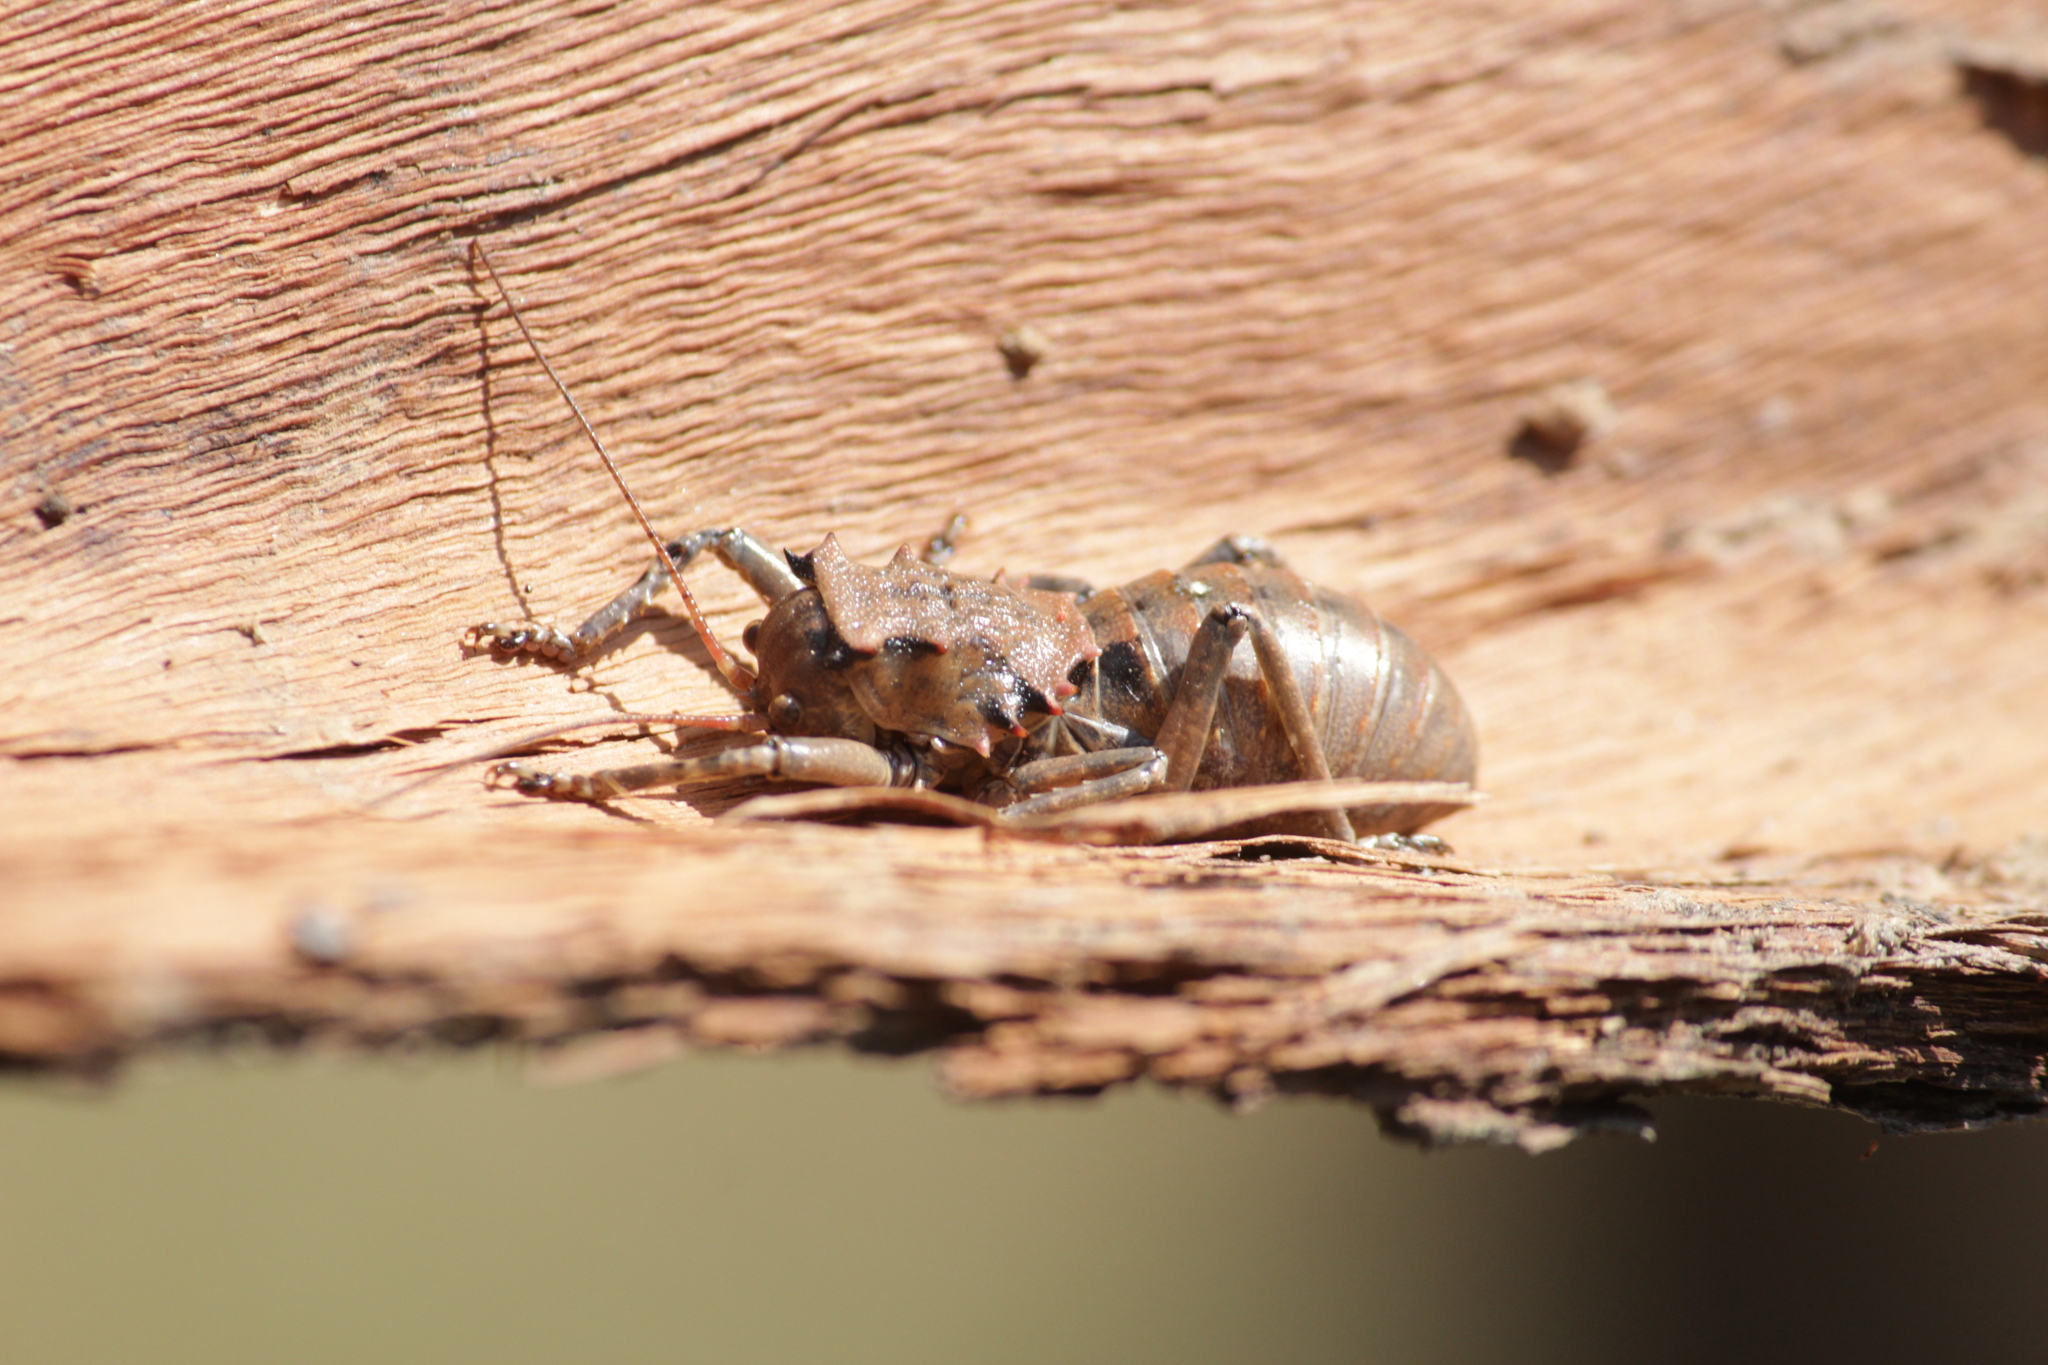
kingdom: Animalia
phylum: Arthropoda
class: Insecta
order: Orthoptera
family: Tettigoniidae
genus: Enyaliopsis
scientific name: Enyaliopsis transvaalensis
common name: Northern armoured katydid
